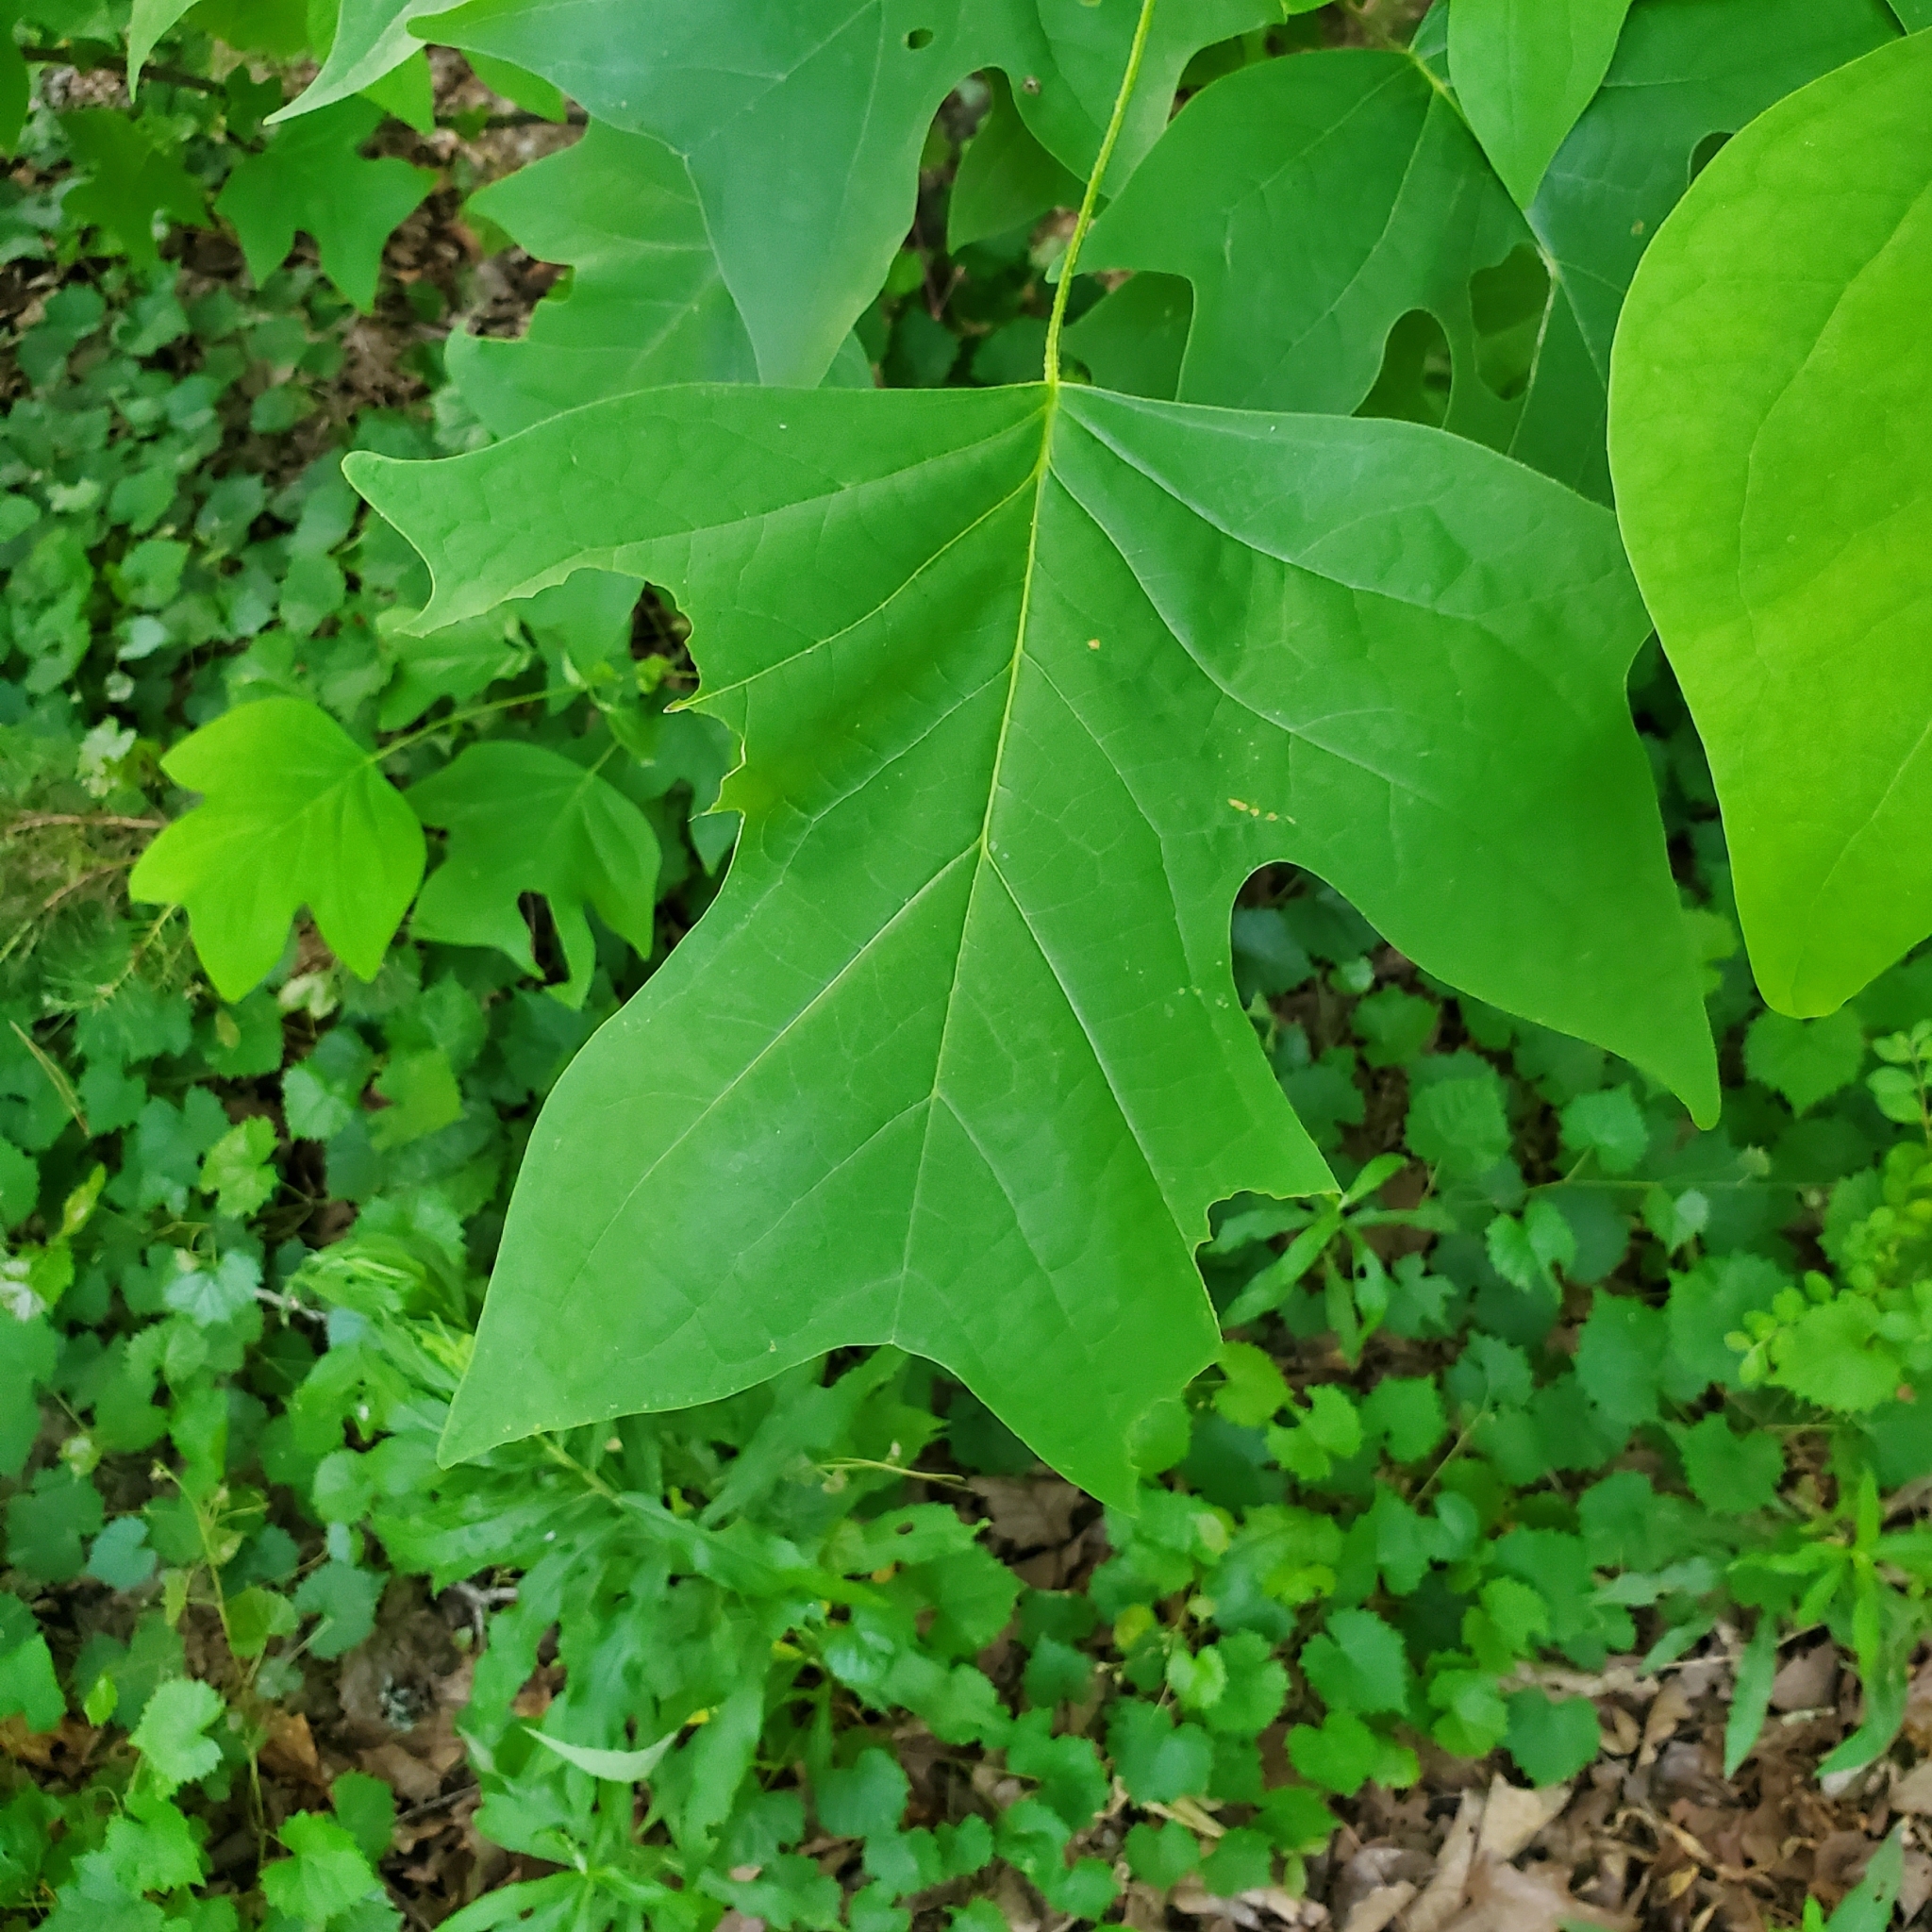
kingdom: Plantae
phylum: Tracheophyta
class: Magnoliopsida
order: Magnoliales
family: Magnoliaceae
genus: Liriodendron
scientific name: Liriodendron tulipifera
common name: Tulip tree
